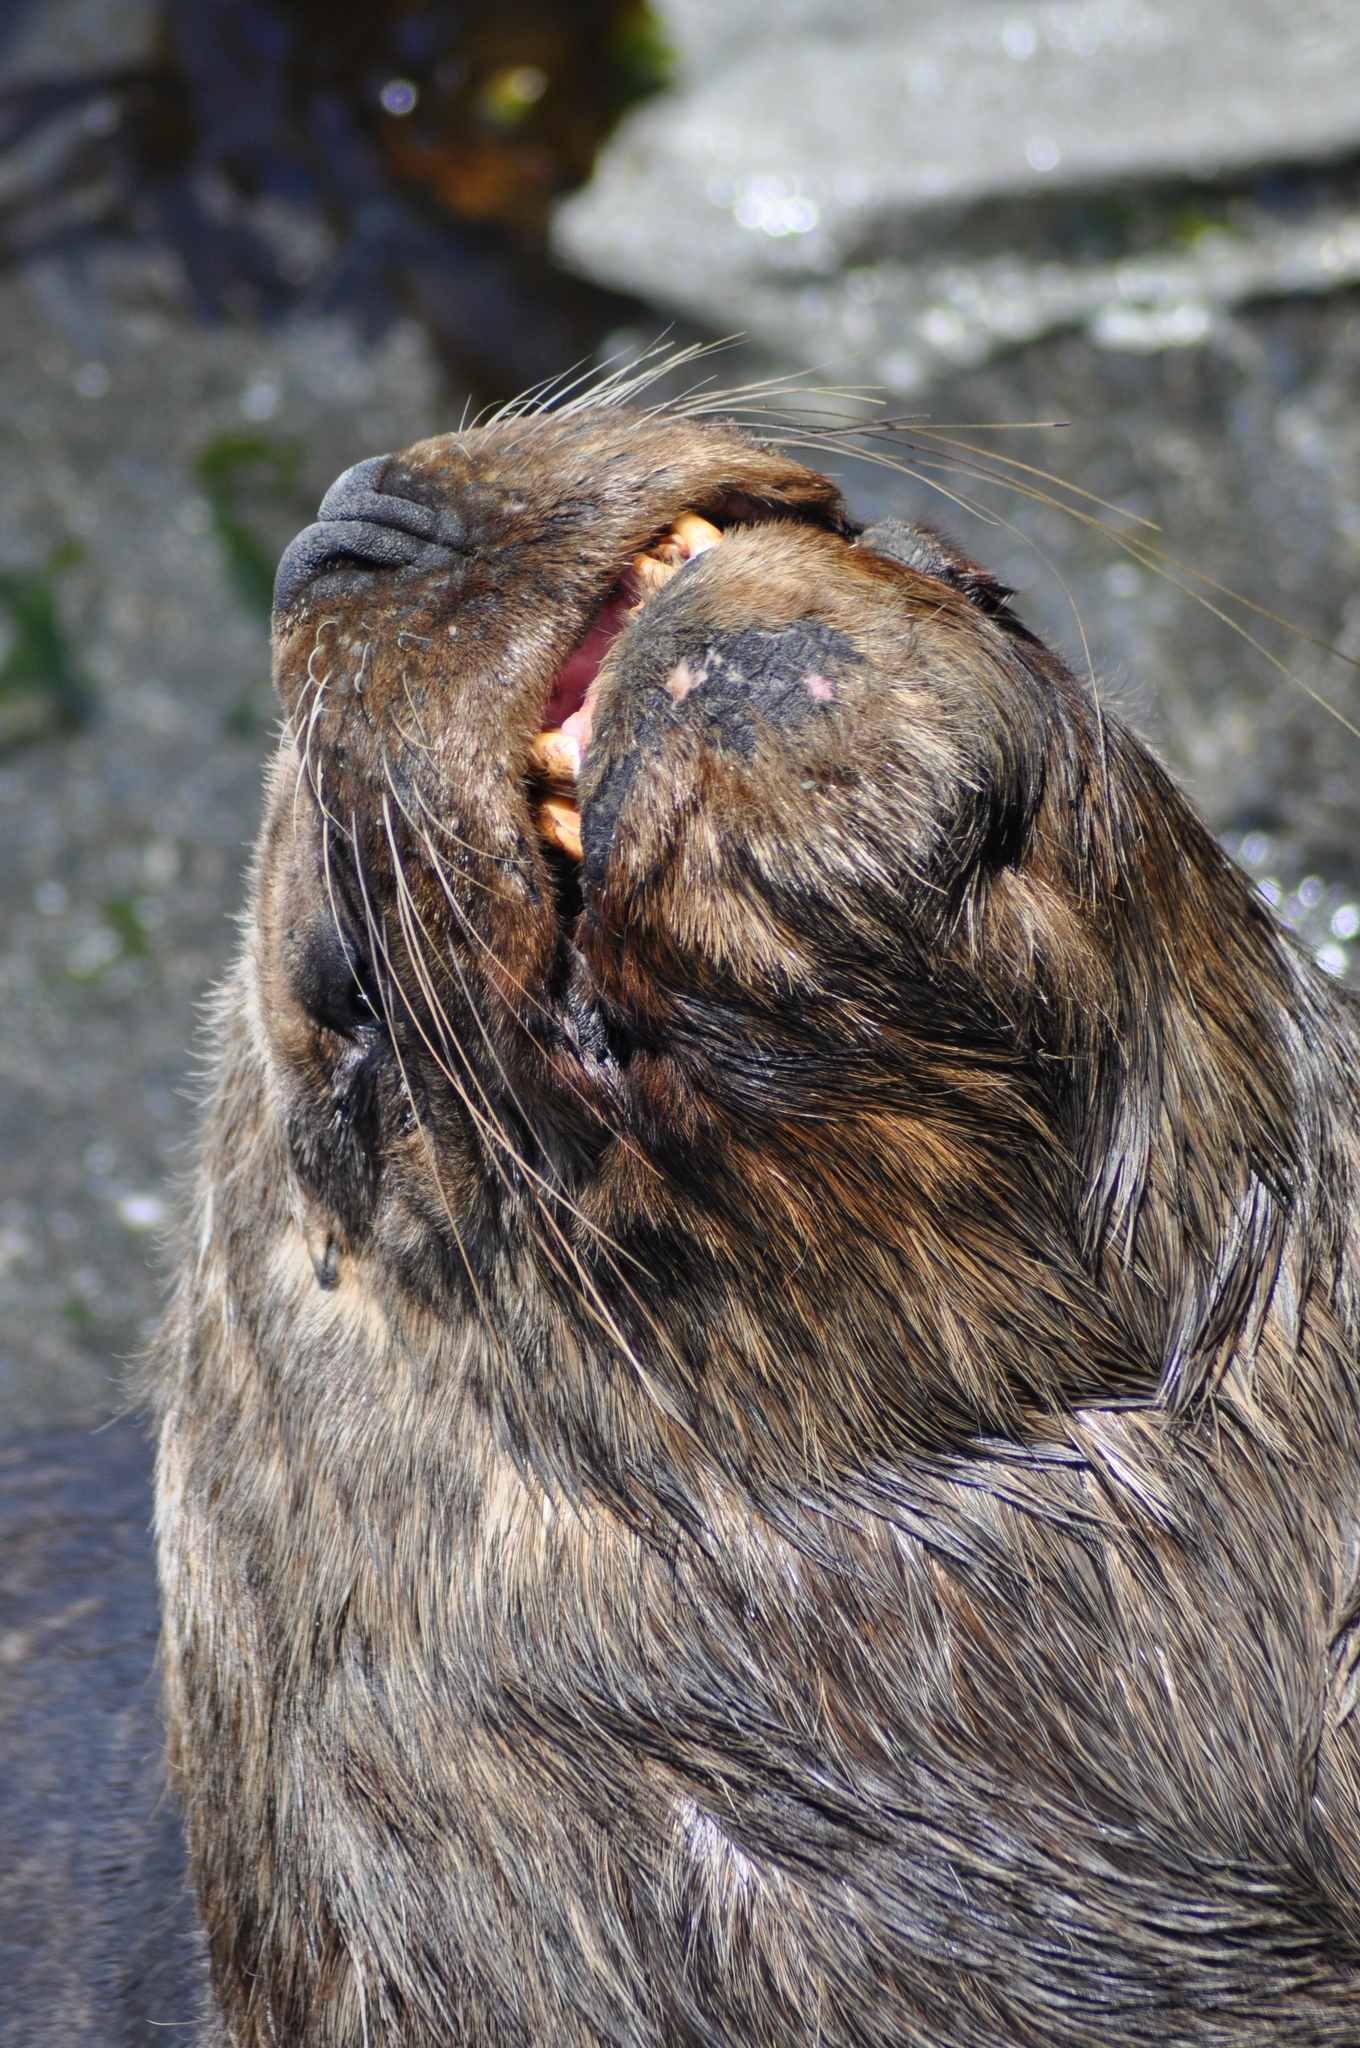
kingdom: Animalia
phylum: Chordata
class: Mammalia
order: Carnivora
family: Otariidae
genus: Otaria
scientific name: Otaria byronia
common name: South american sea lion
